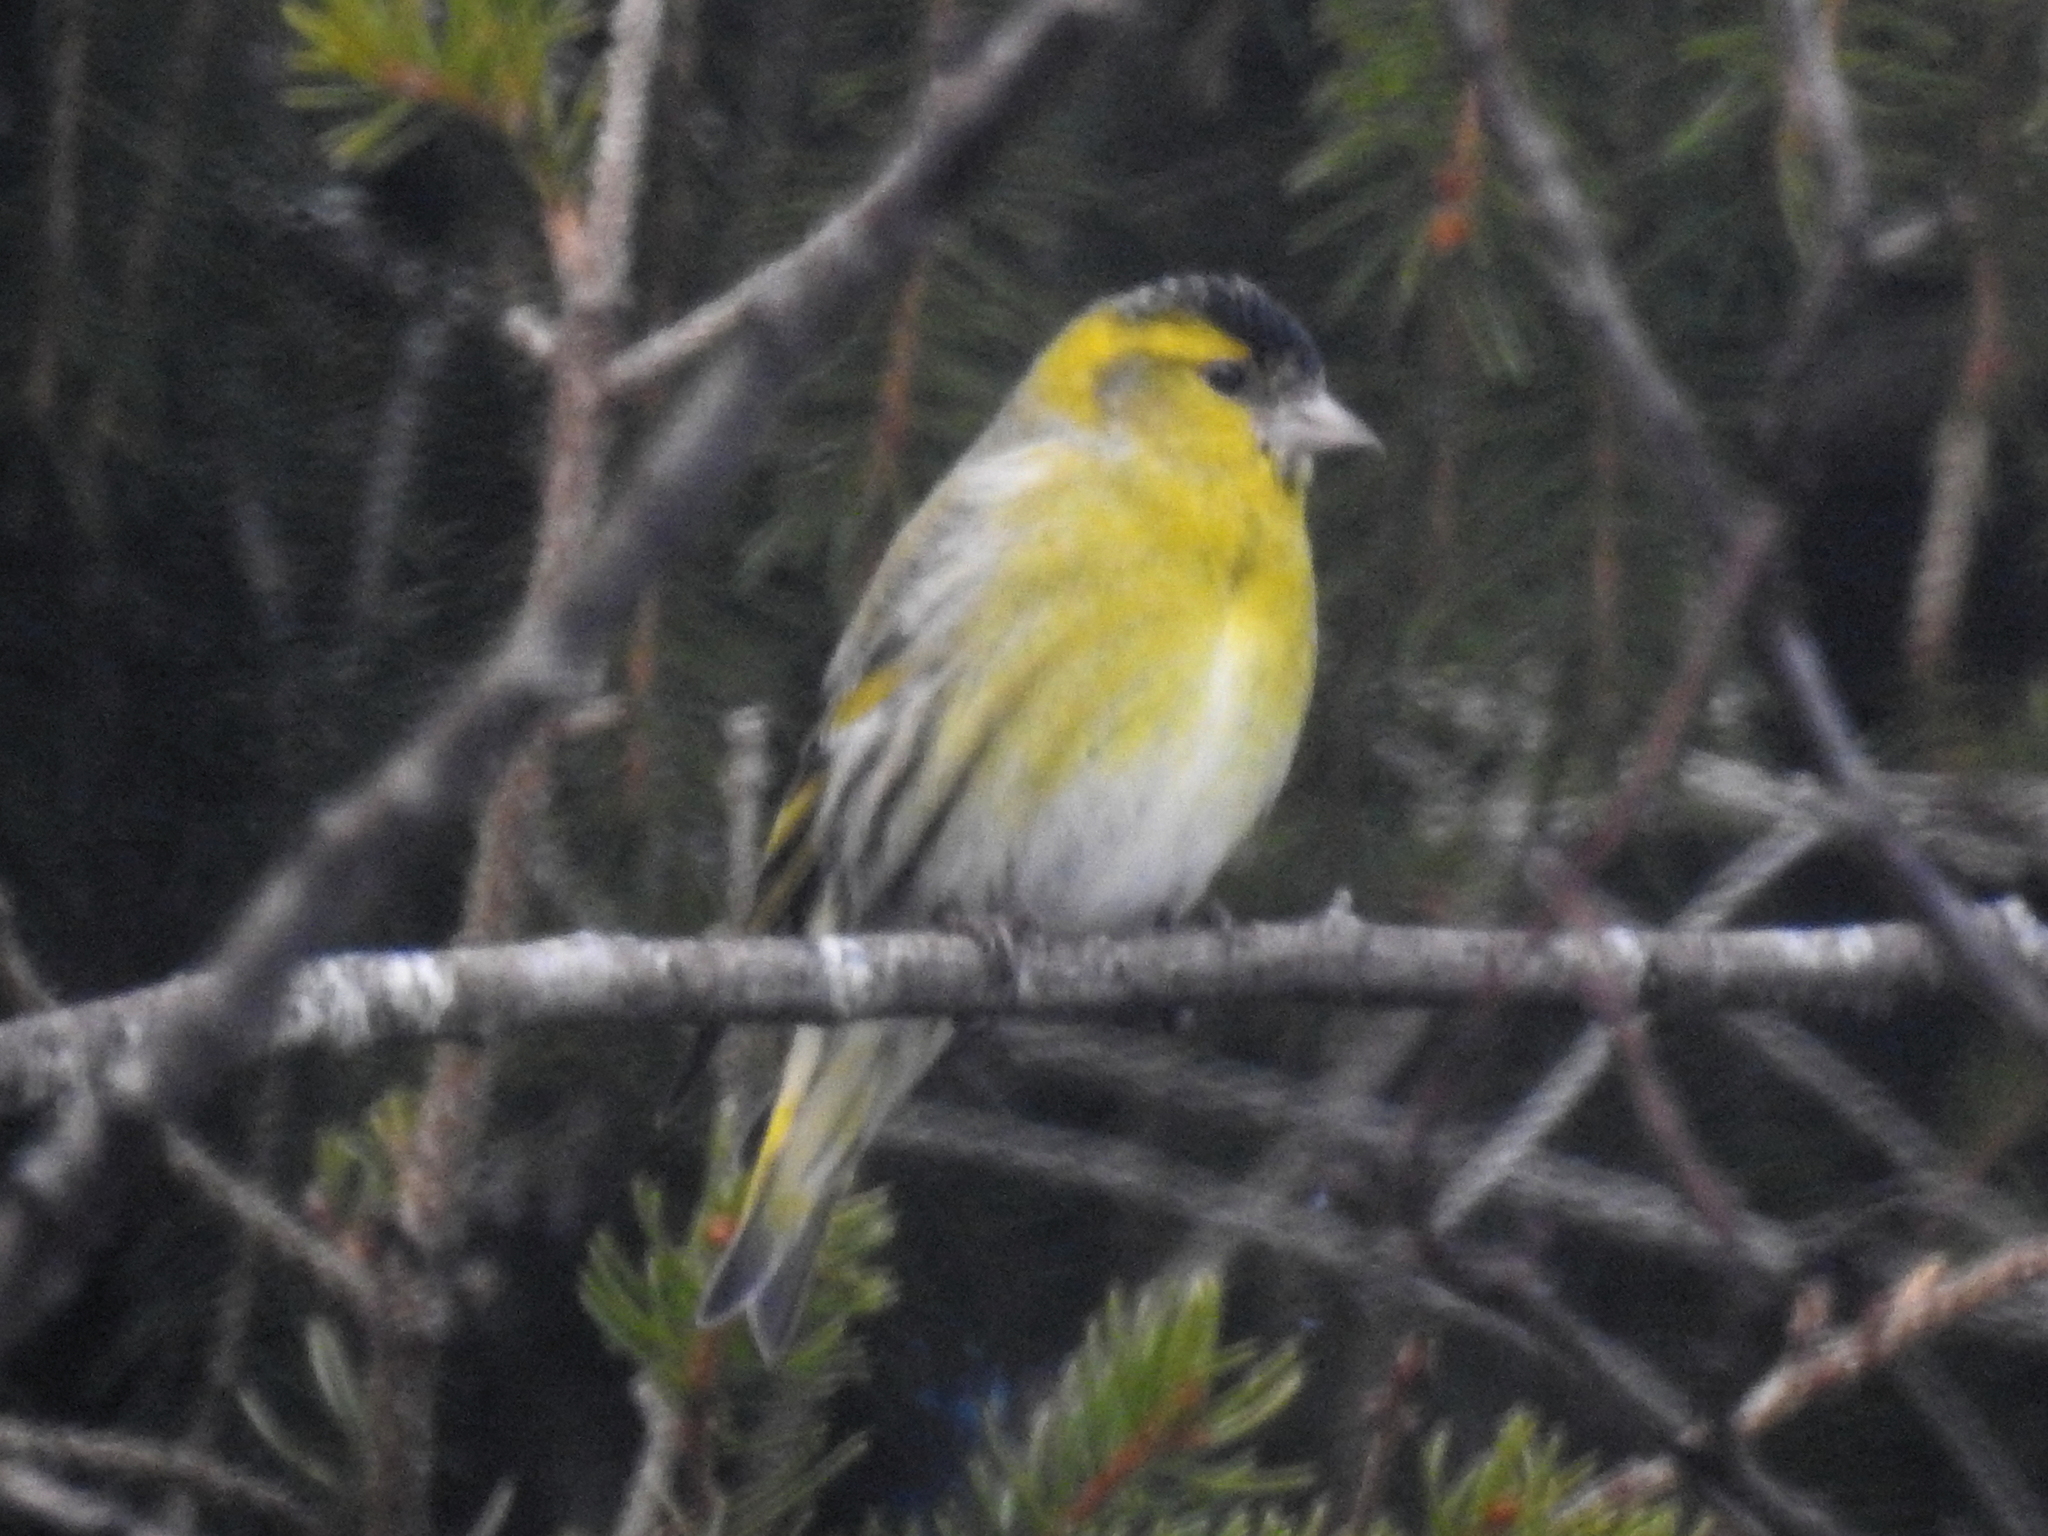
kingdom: Animalia
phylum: Chordata
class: Aves
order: Passeriformes
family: Fringillidae
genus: Spinus
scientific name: Spinus spinus
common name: Eurasian siskin
